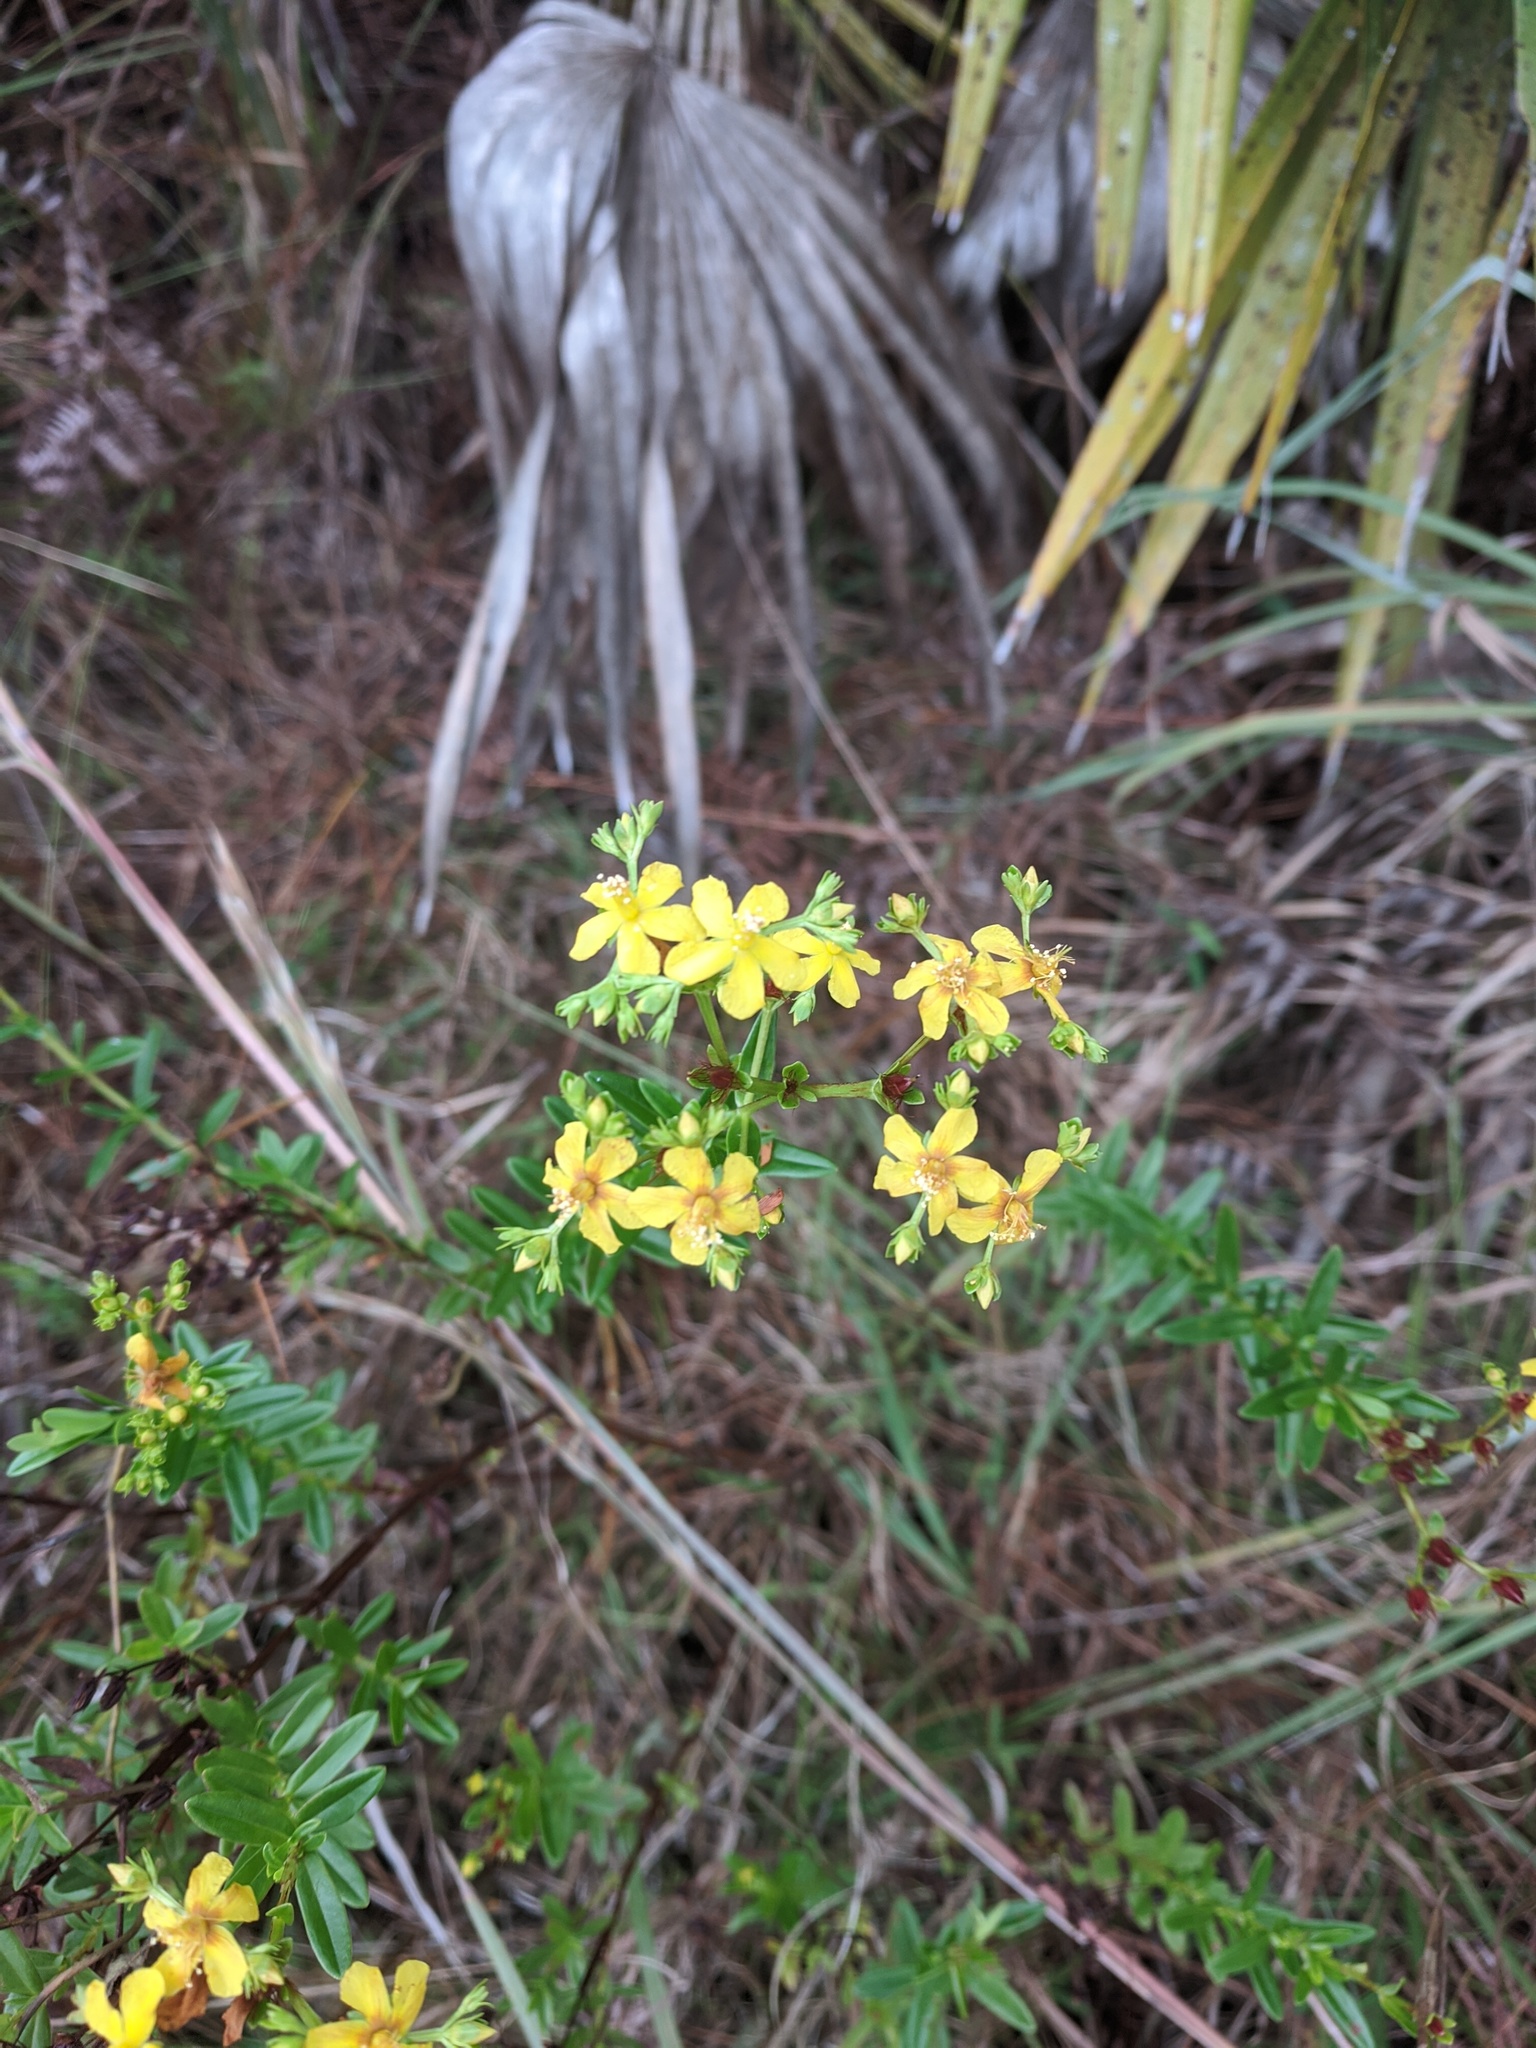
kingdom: Plantae
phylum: Tracheophyta
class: Magnoliopsida
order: Malpighiales
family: Hypericaceae
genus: Hypericum
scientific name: Hypericum cistifolium
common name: Round-pod st. john's-wort
